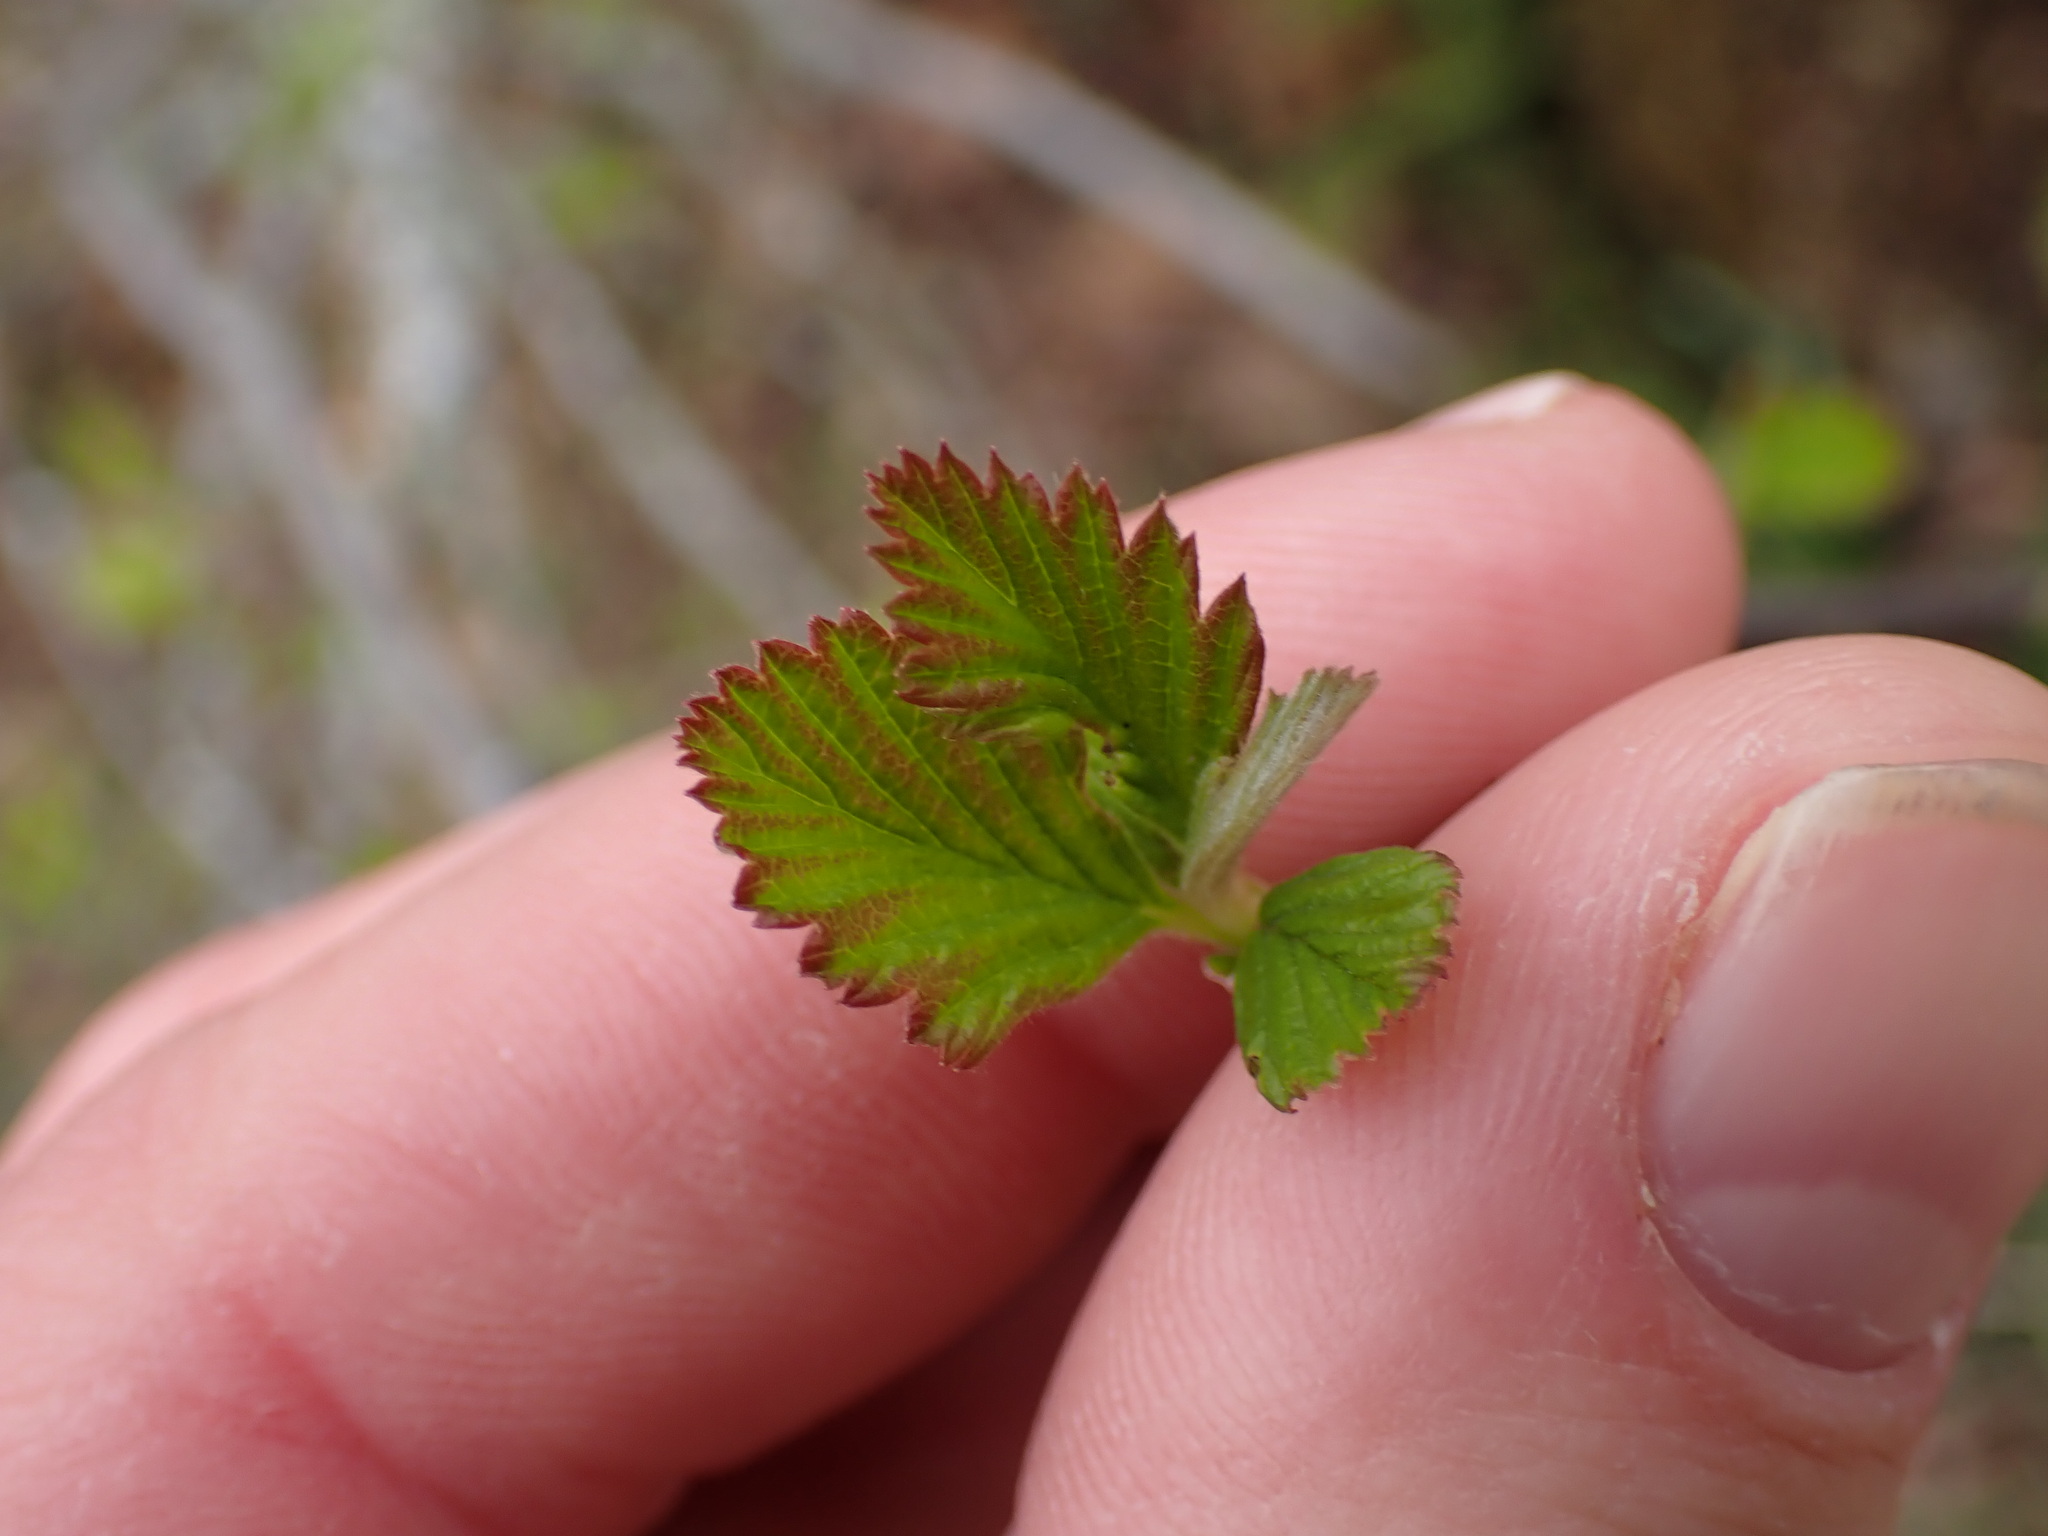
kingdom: Plantae
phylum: Tracheophyta
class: Magnoliopsida
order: Rosales
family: Rosaceae
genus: Holodiscus
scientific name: Holodiscus discolor
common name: Oceanspray
